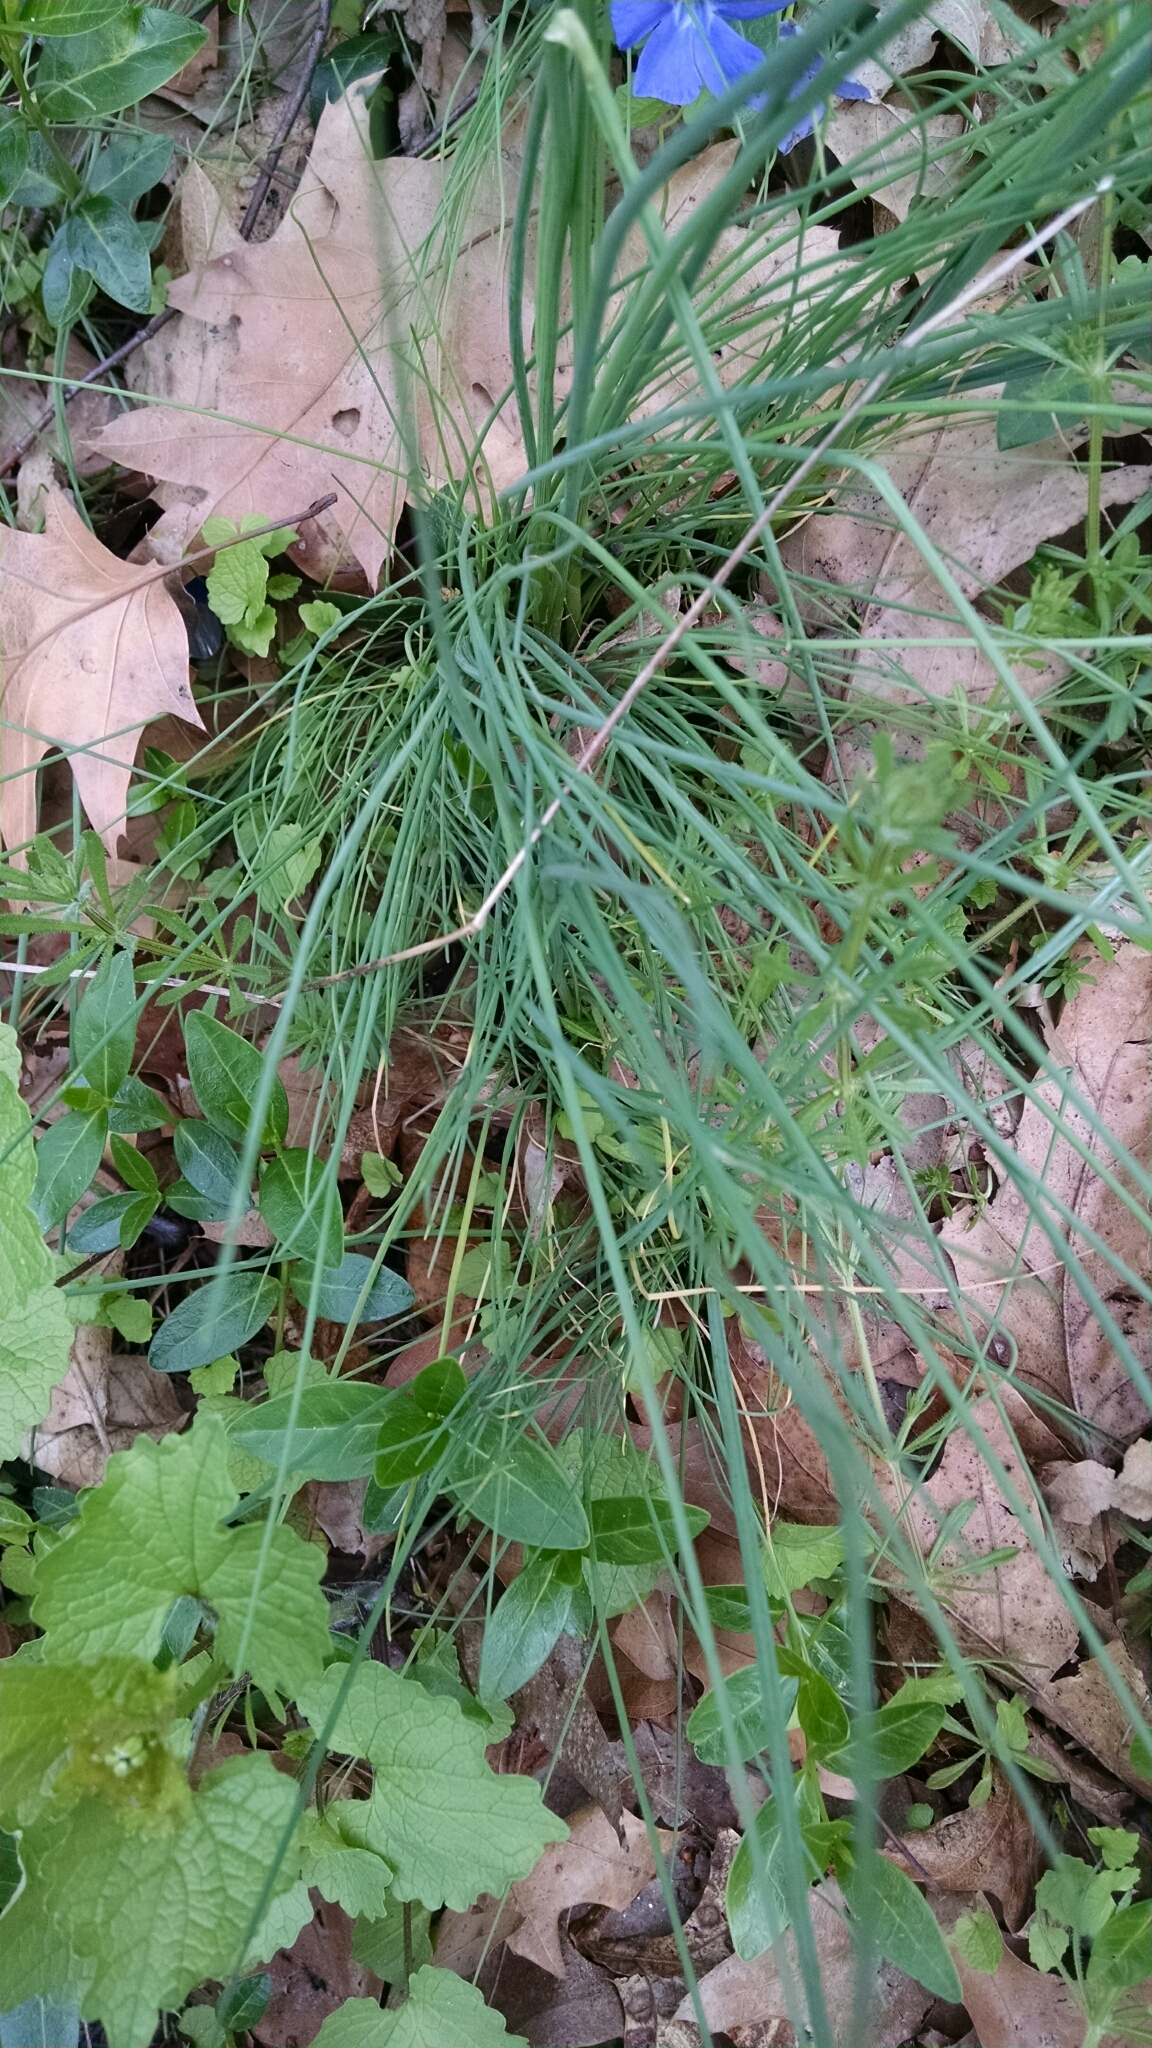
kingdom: Plantae
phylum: Tracheophyta
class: Liliopsida
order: Asparagales
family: Amaryllidaceae
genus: Allium
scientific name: Allium vineale
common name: Crow garlic
